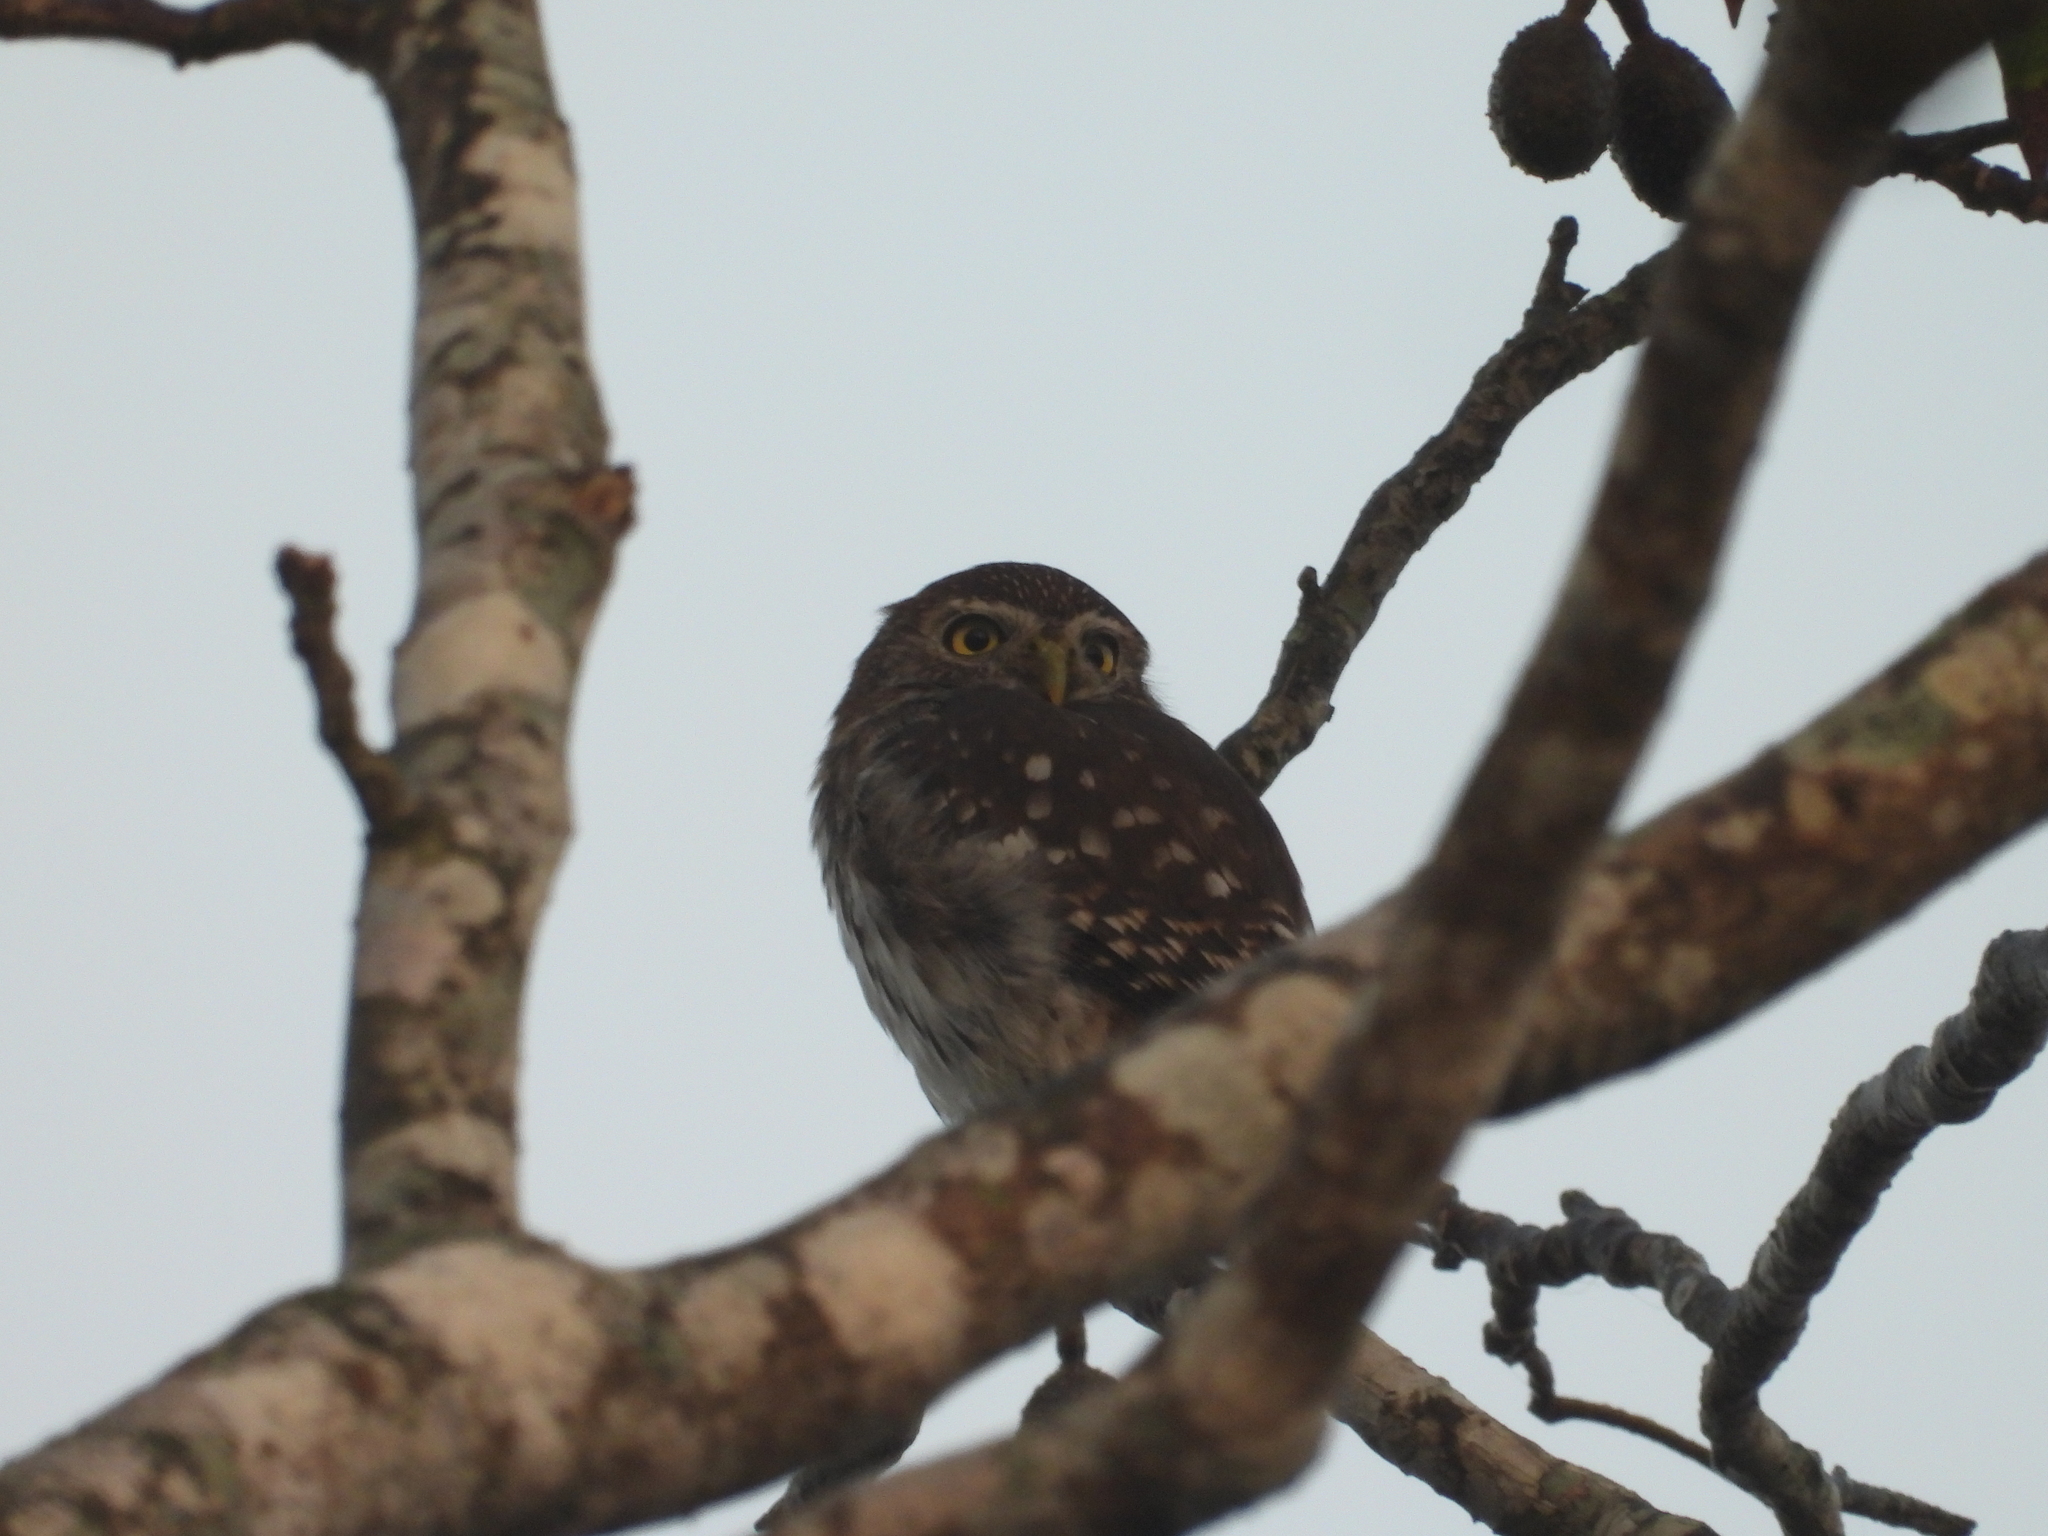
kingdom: Animalia
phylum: Chordata
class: Aves
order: Strigiformes
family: Strigidae
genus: Glaucidium
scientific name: Glaucidium brasilianum
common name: Ferruginous pygmy-owl
